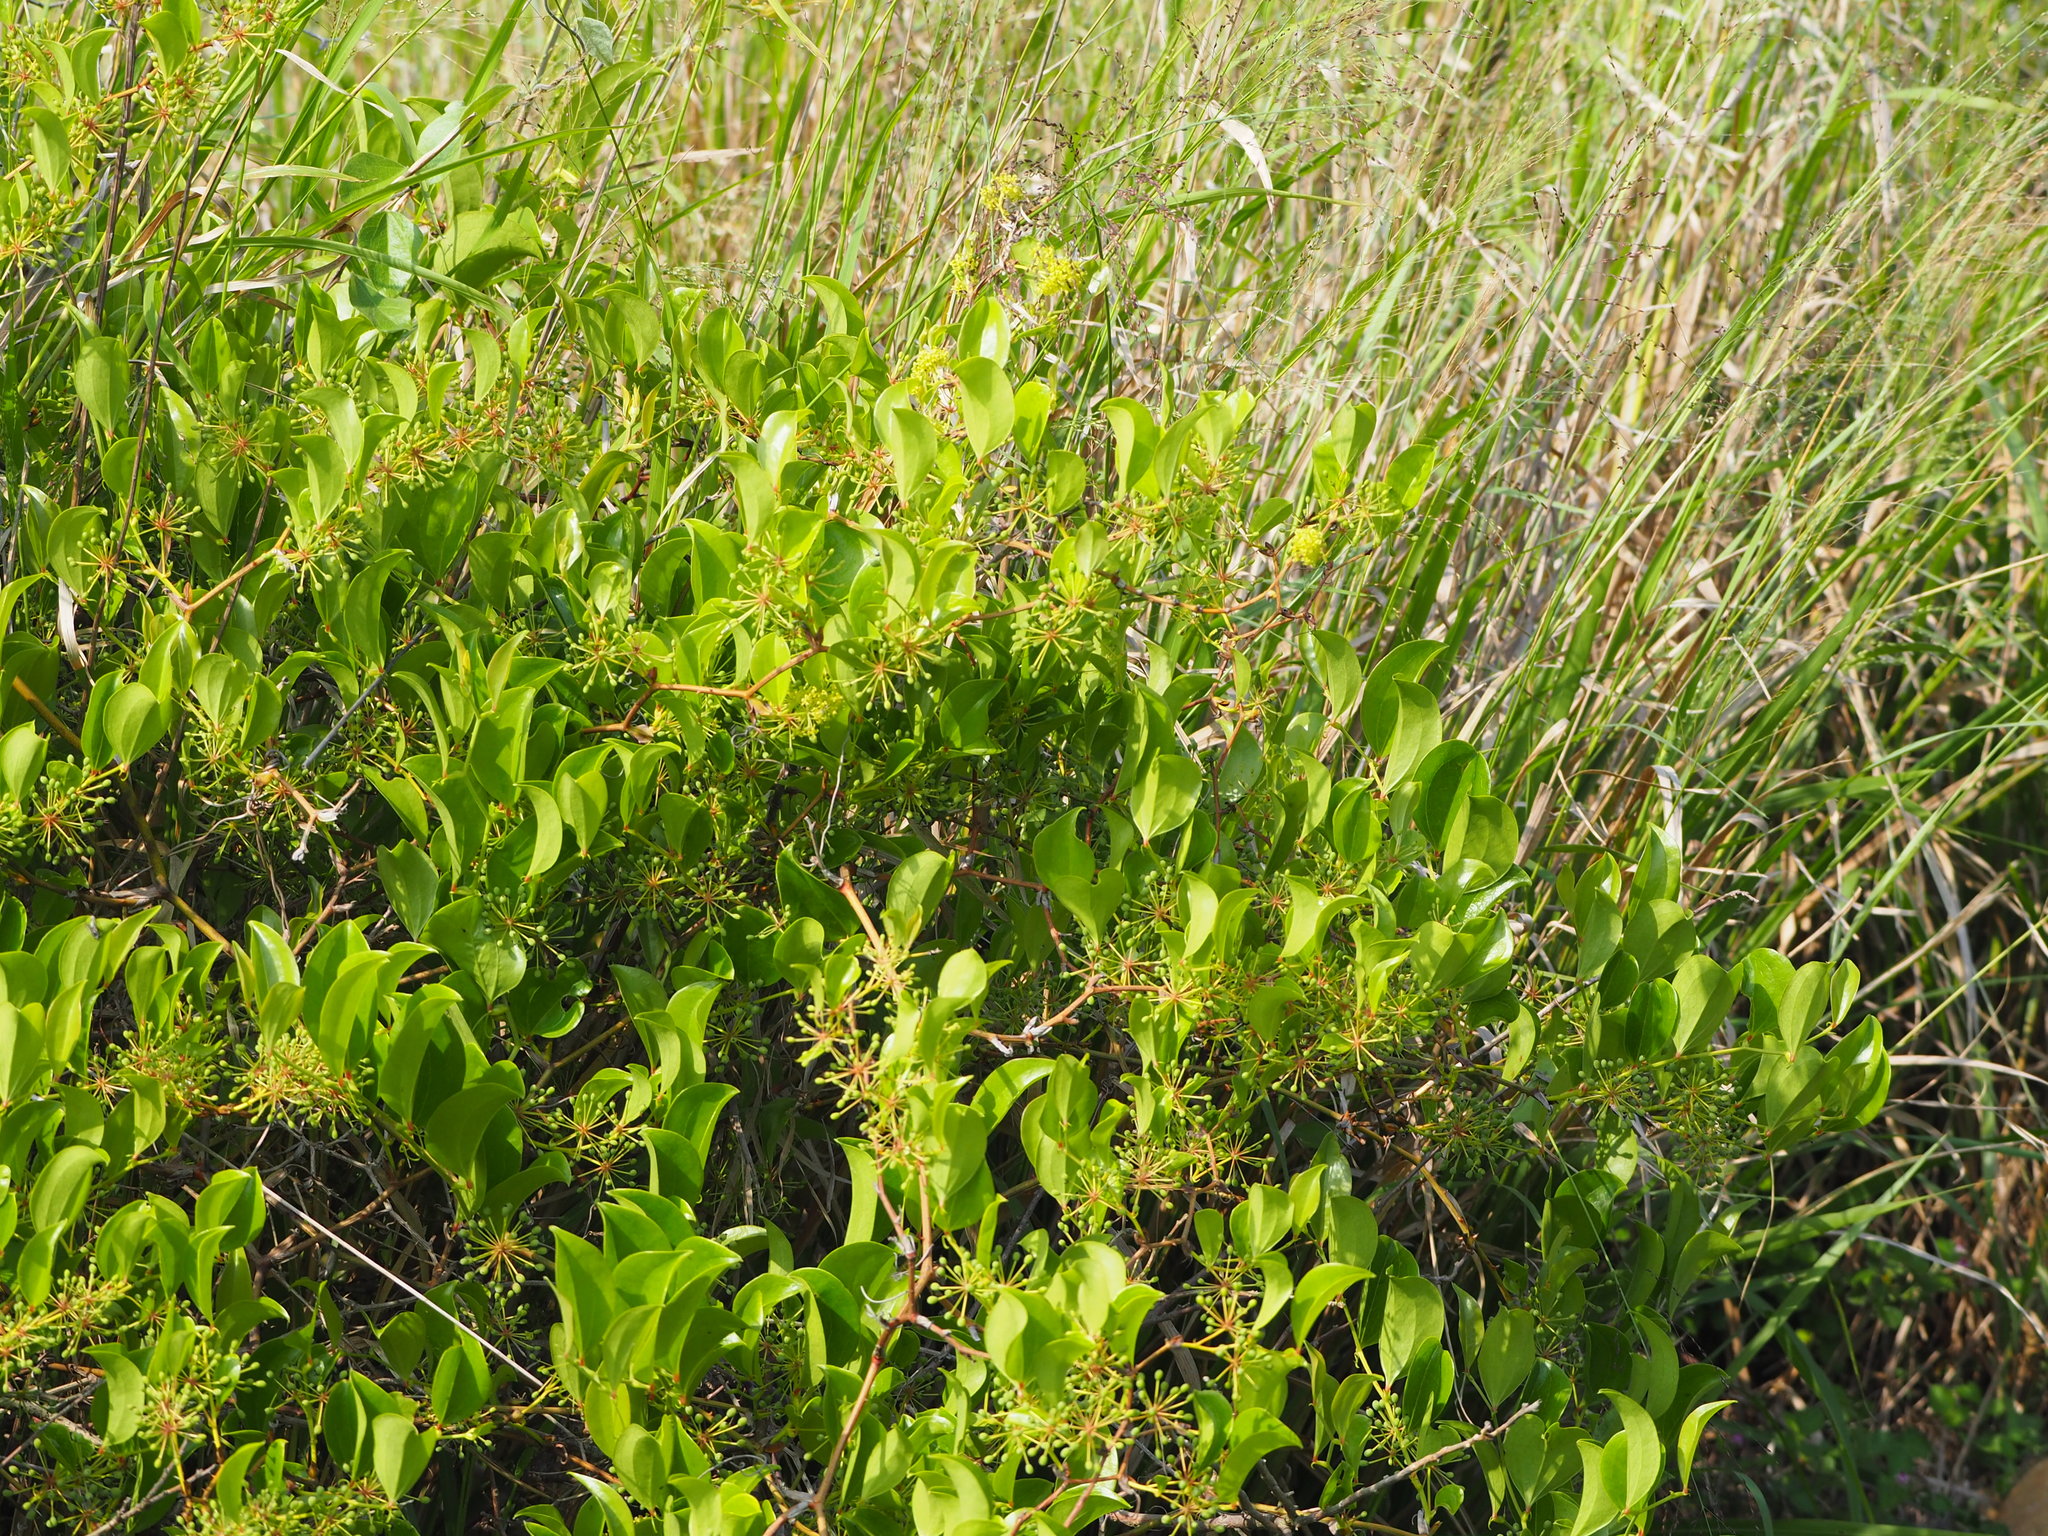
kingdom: Plantae
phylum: Tracheophyta
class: Liliopsida
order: Liliales
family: Smilacaceae
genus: Smilax
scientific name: Smilax china
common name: Chinaroot
